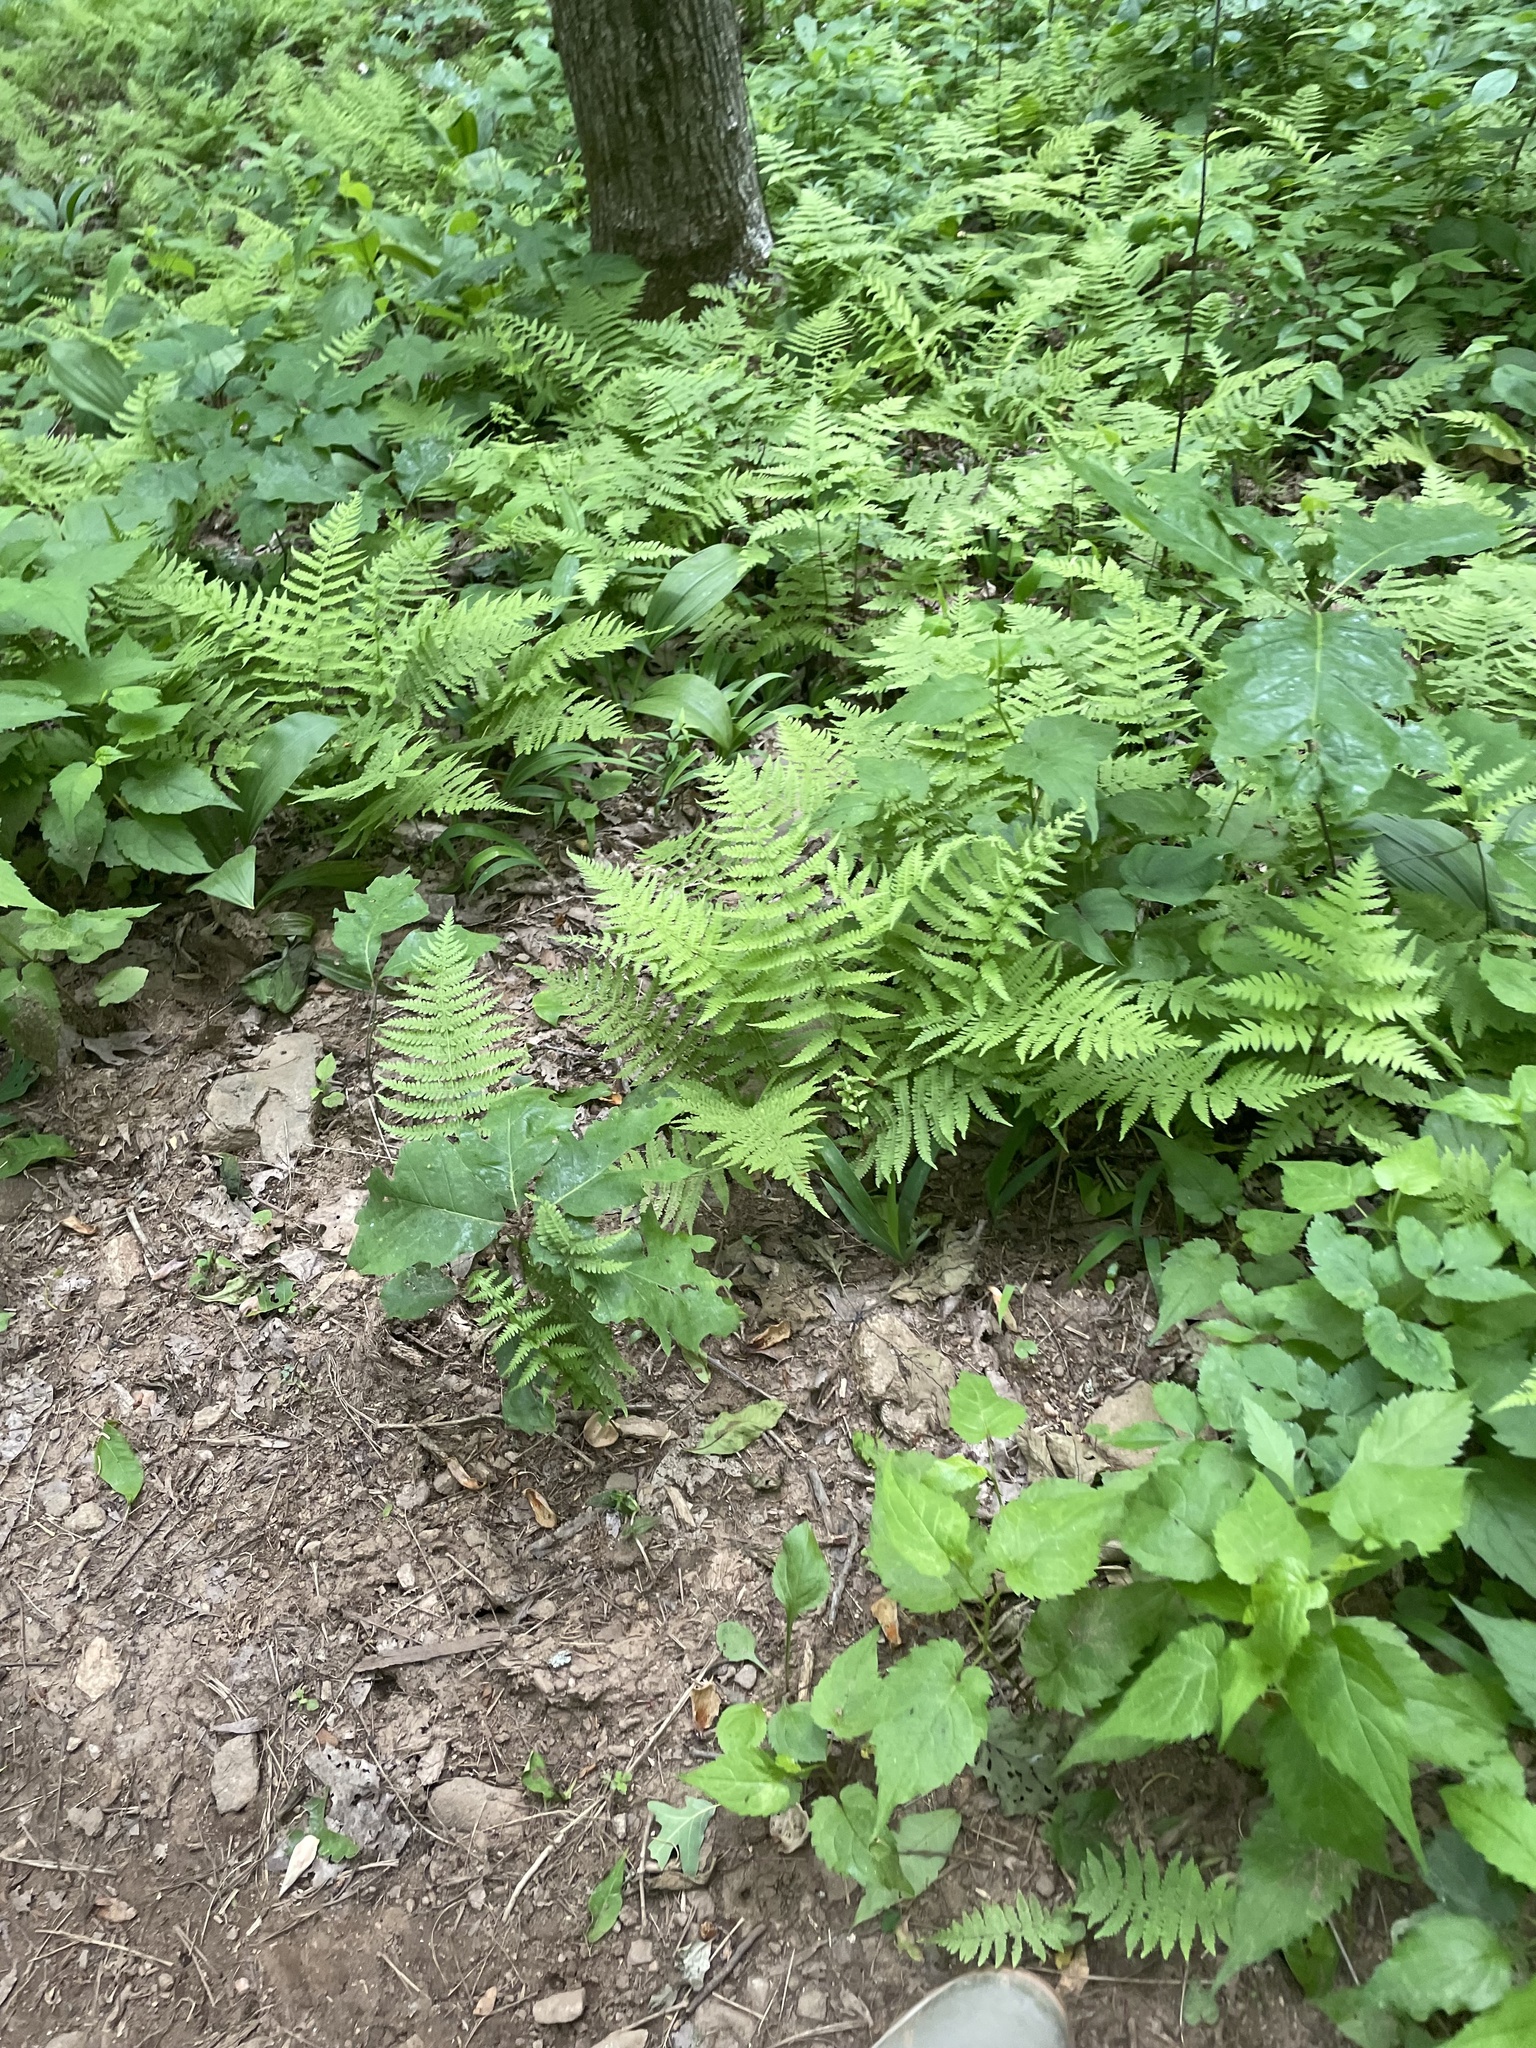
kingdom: Plantae
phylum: Tracheophyta
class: Polypodiopsida
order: Polypodiales
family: Thelypteridaceae
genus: Amauropelta
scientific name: Amauropelta noveboracensis
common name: New york fern
